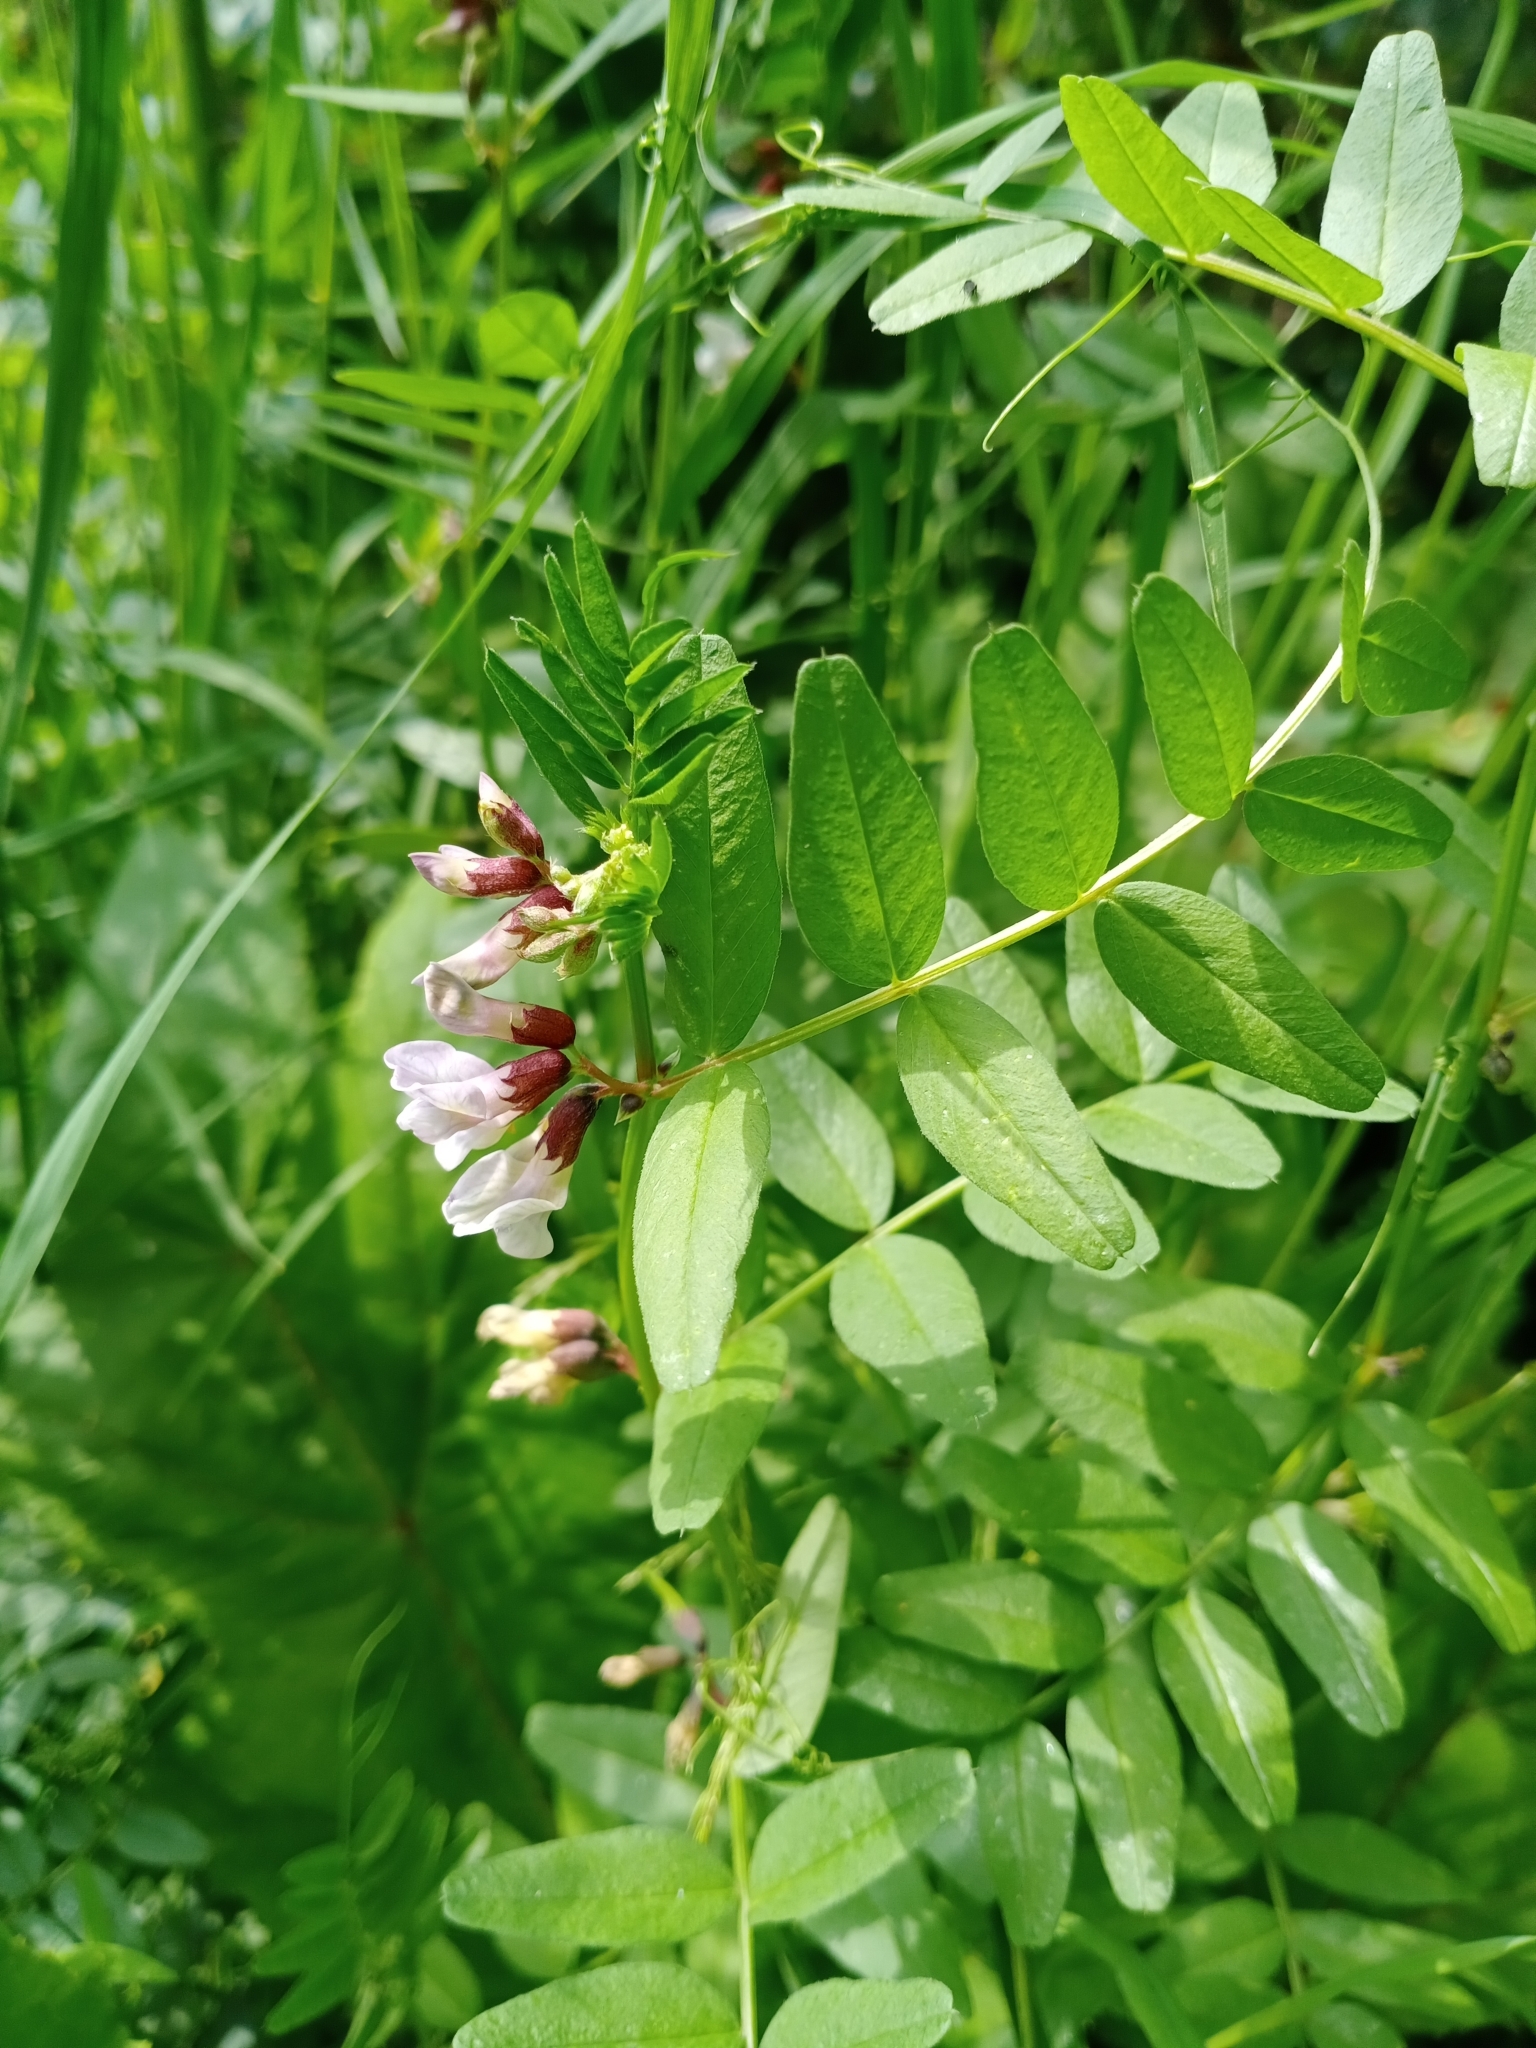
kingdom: Plantae
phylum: Tracheophyta
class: Magnoliopsida
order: Fabales
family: Fabaceae
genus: Vicia
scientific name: Vicia sepium
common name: Bush vetch
